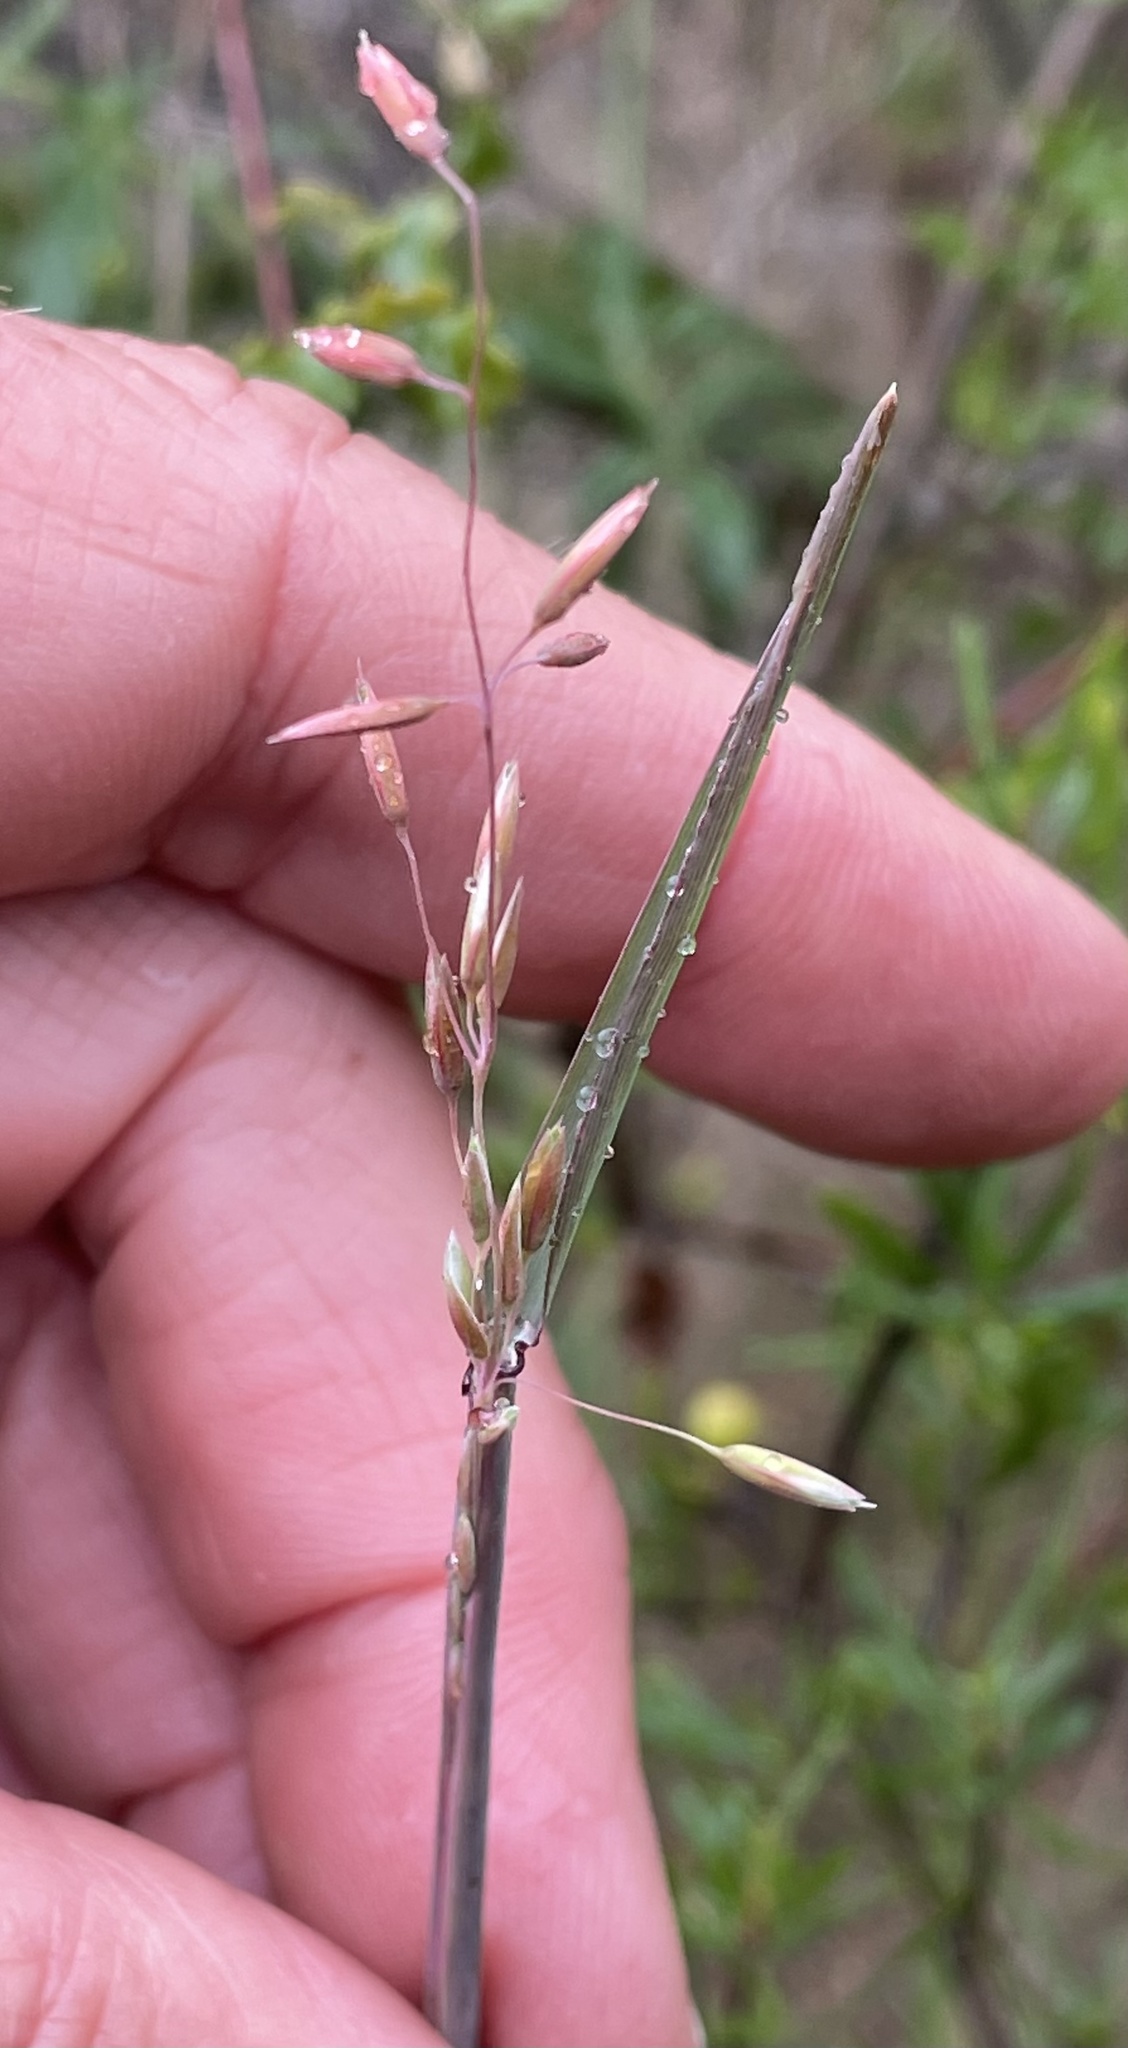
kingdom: Plantae
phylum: Tracheophyta
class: Liliopsida
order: Poales
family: Poaceae
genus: Ehrharta
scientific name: Ehrharta calycina
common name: Perennial veldtgrass
